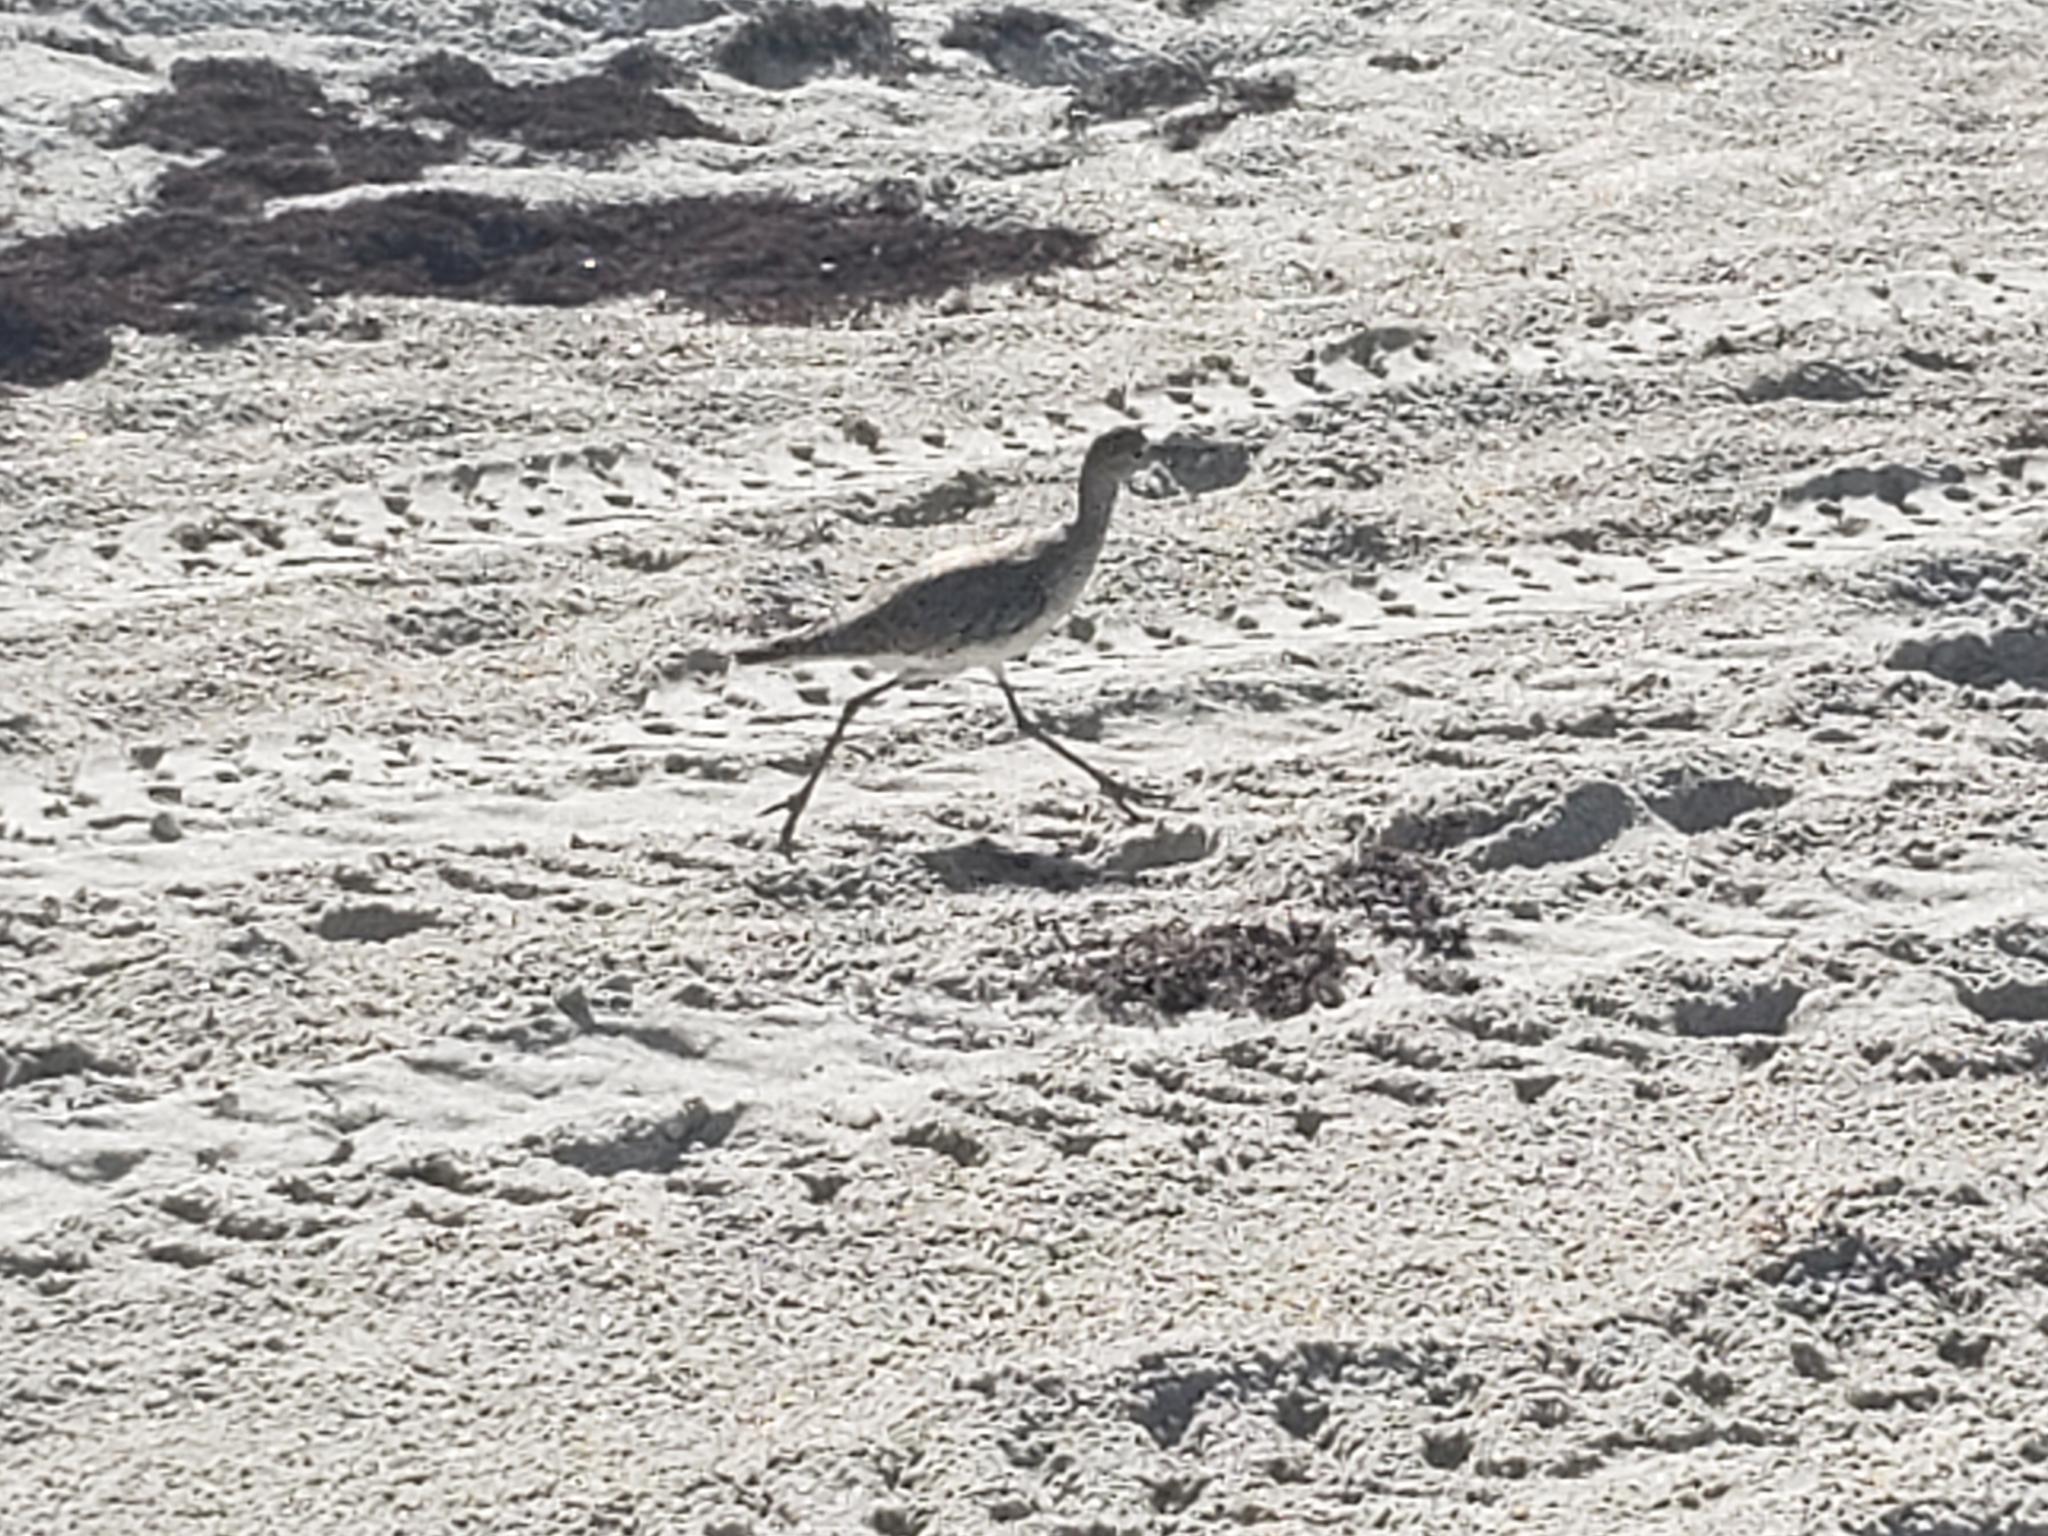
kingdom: Animalia
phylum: Chordata
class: Aves
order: Charadriiformes
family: Scolopacidae
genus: Tringa
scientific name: Tringa semipalmata
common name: Willet
